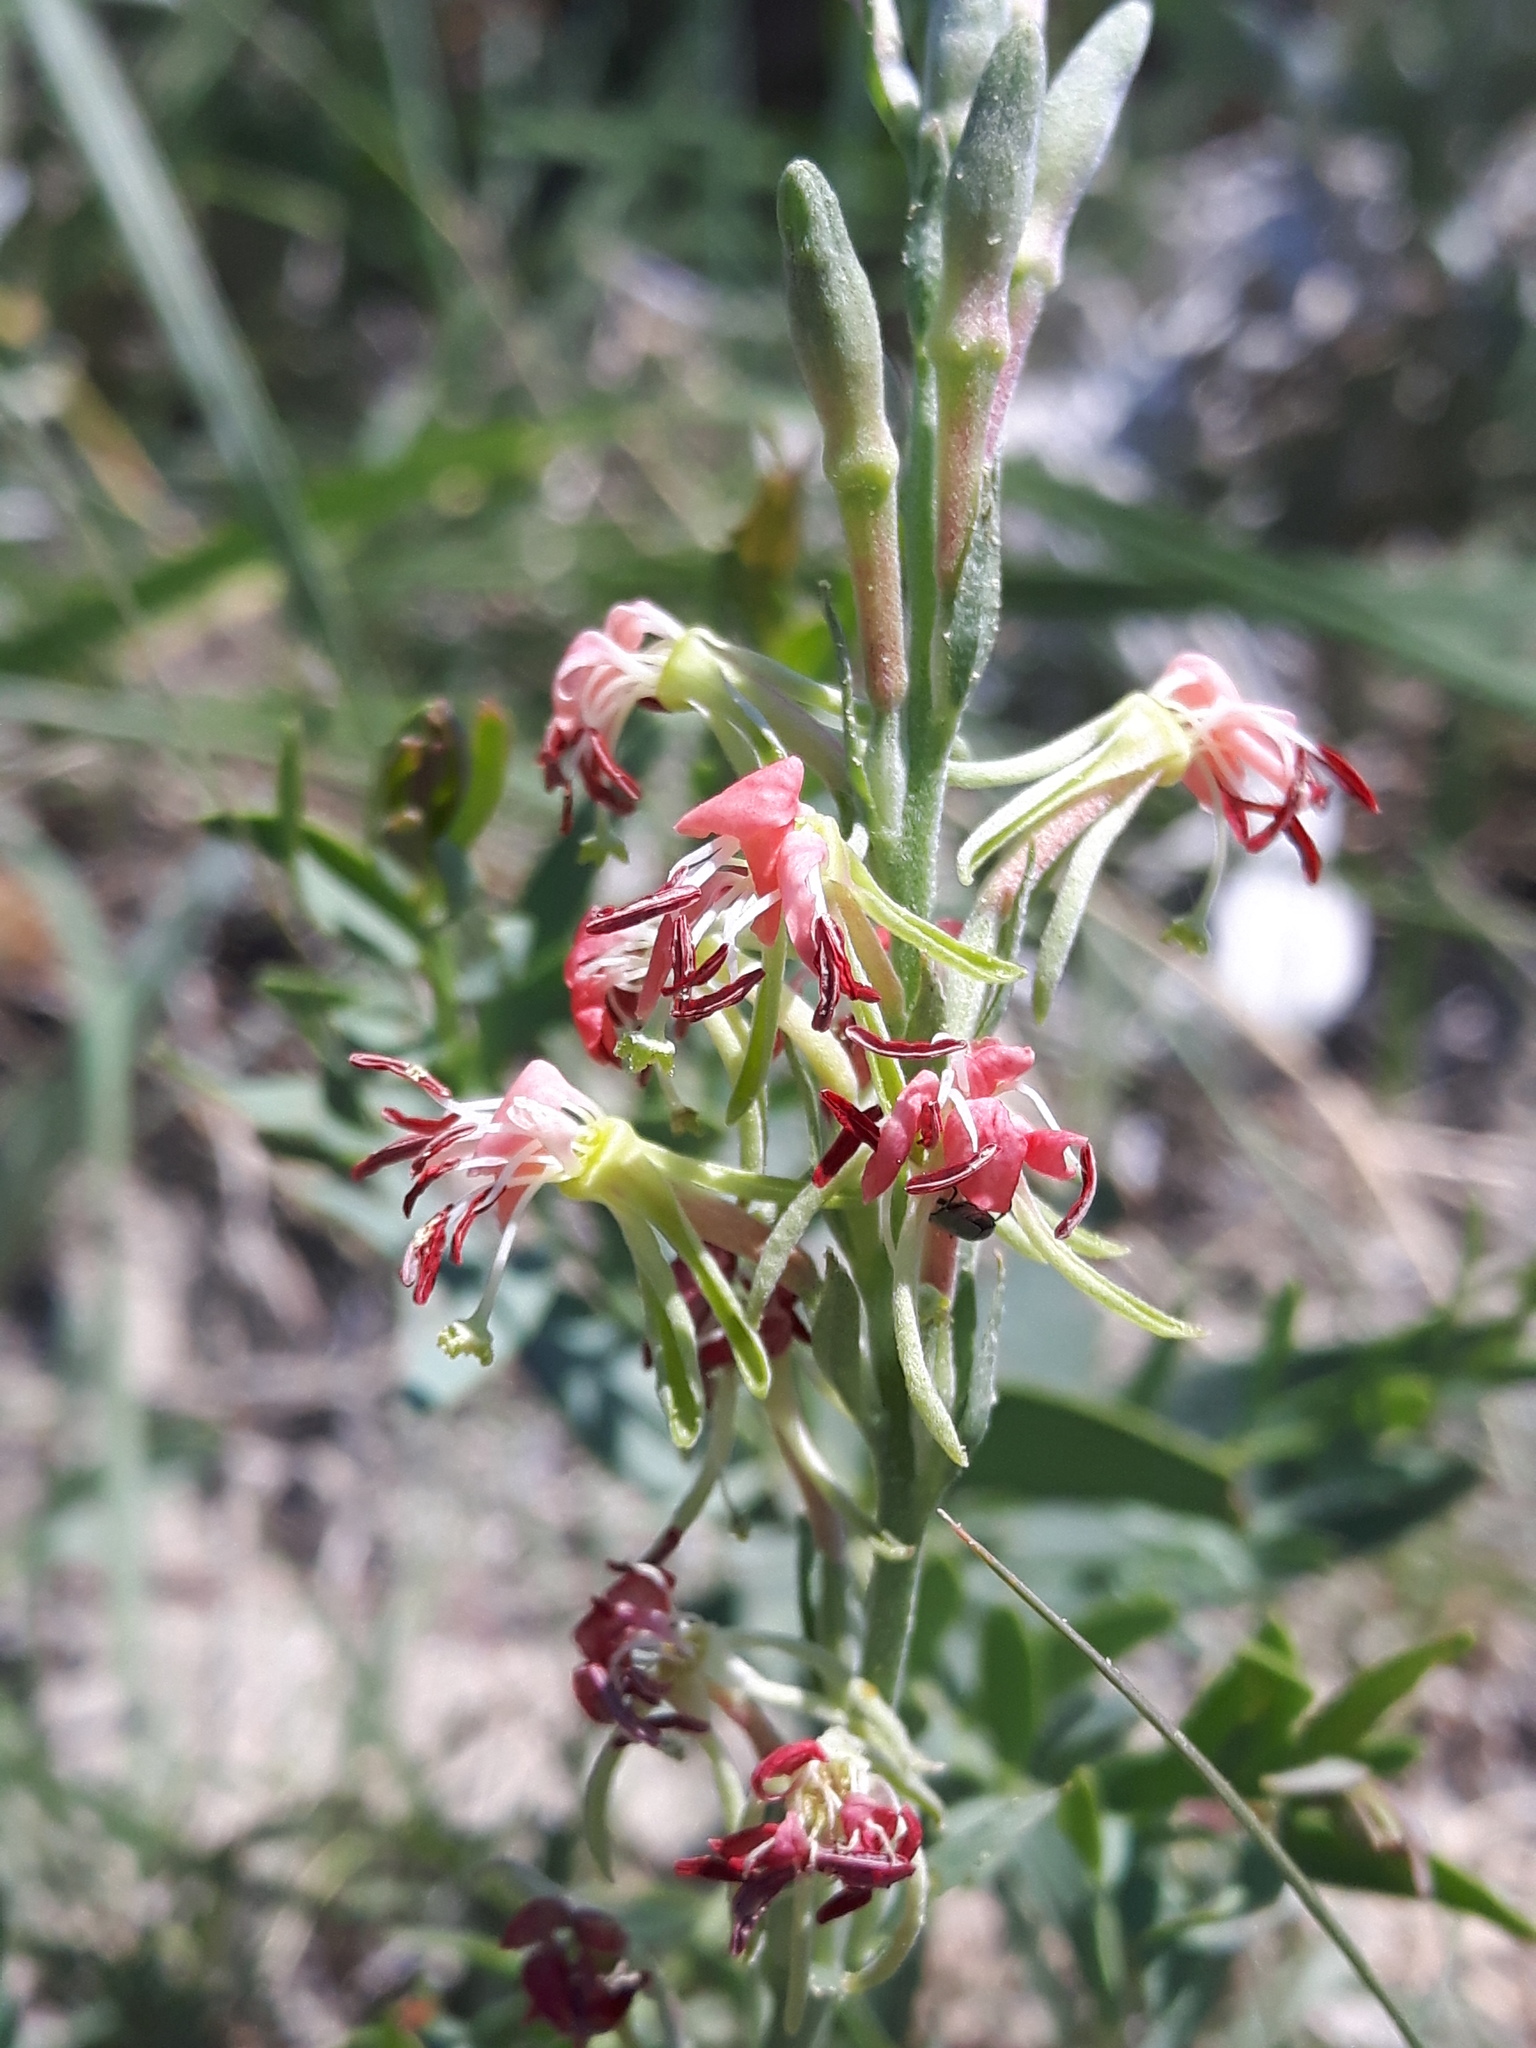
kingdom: Plantae
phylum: Tracheophyta
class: Magnoliopsida
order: Myrtales
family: Onagraceae
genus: Oenothera
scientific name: Oenothera suffrutescens
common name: Scarlet beeblossom
